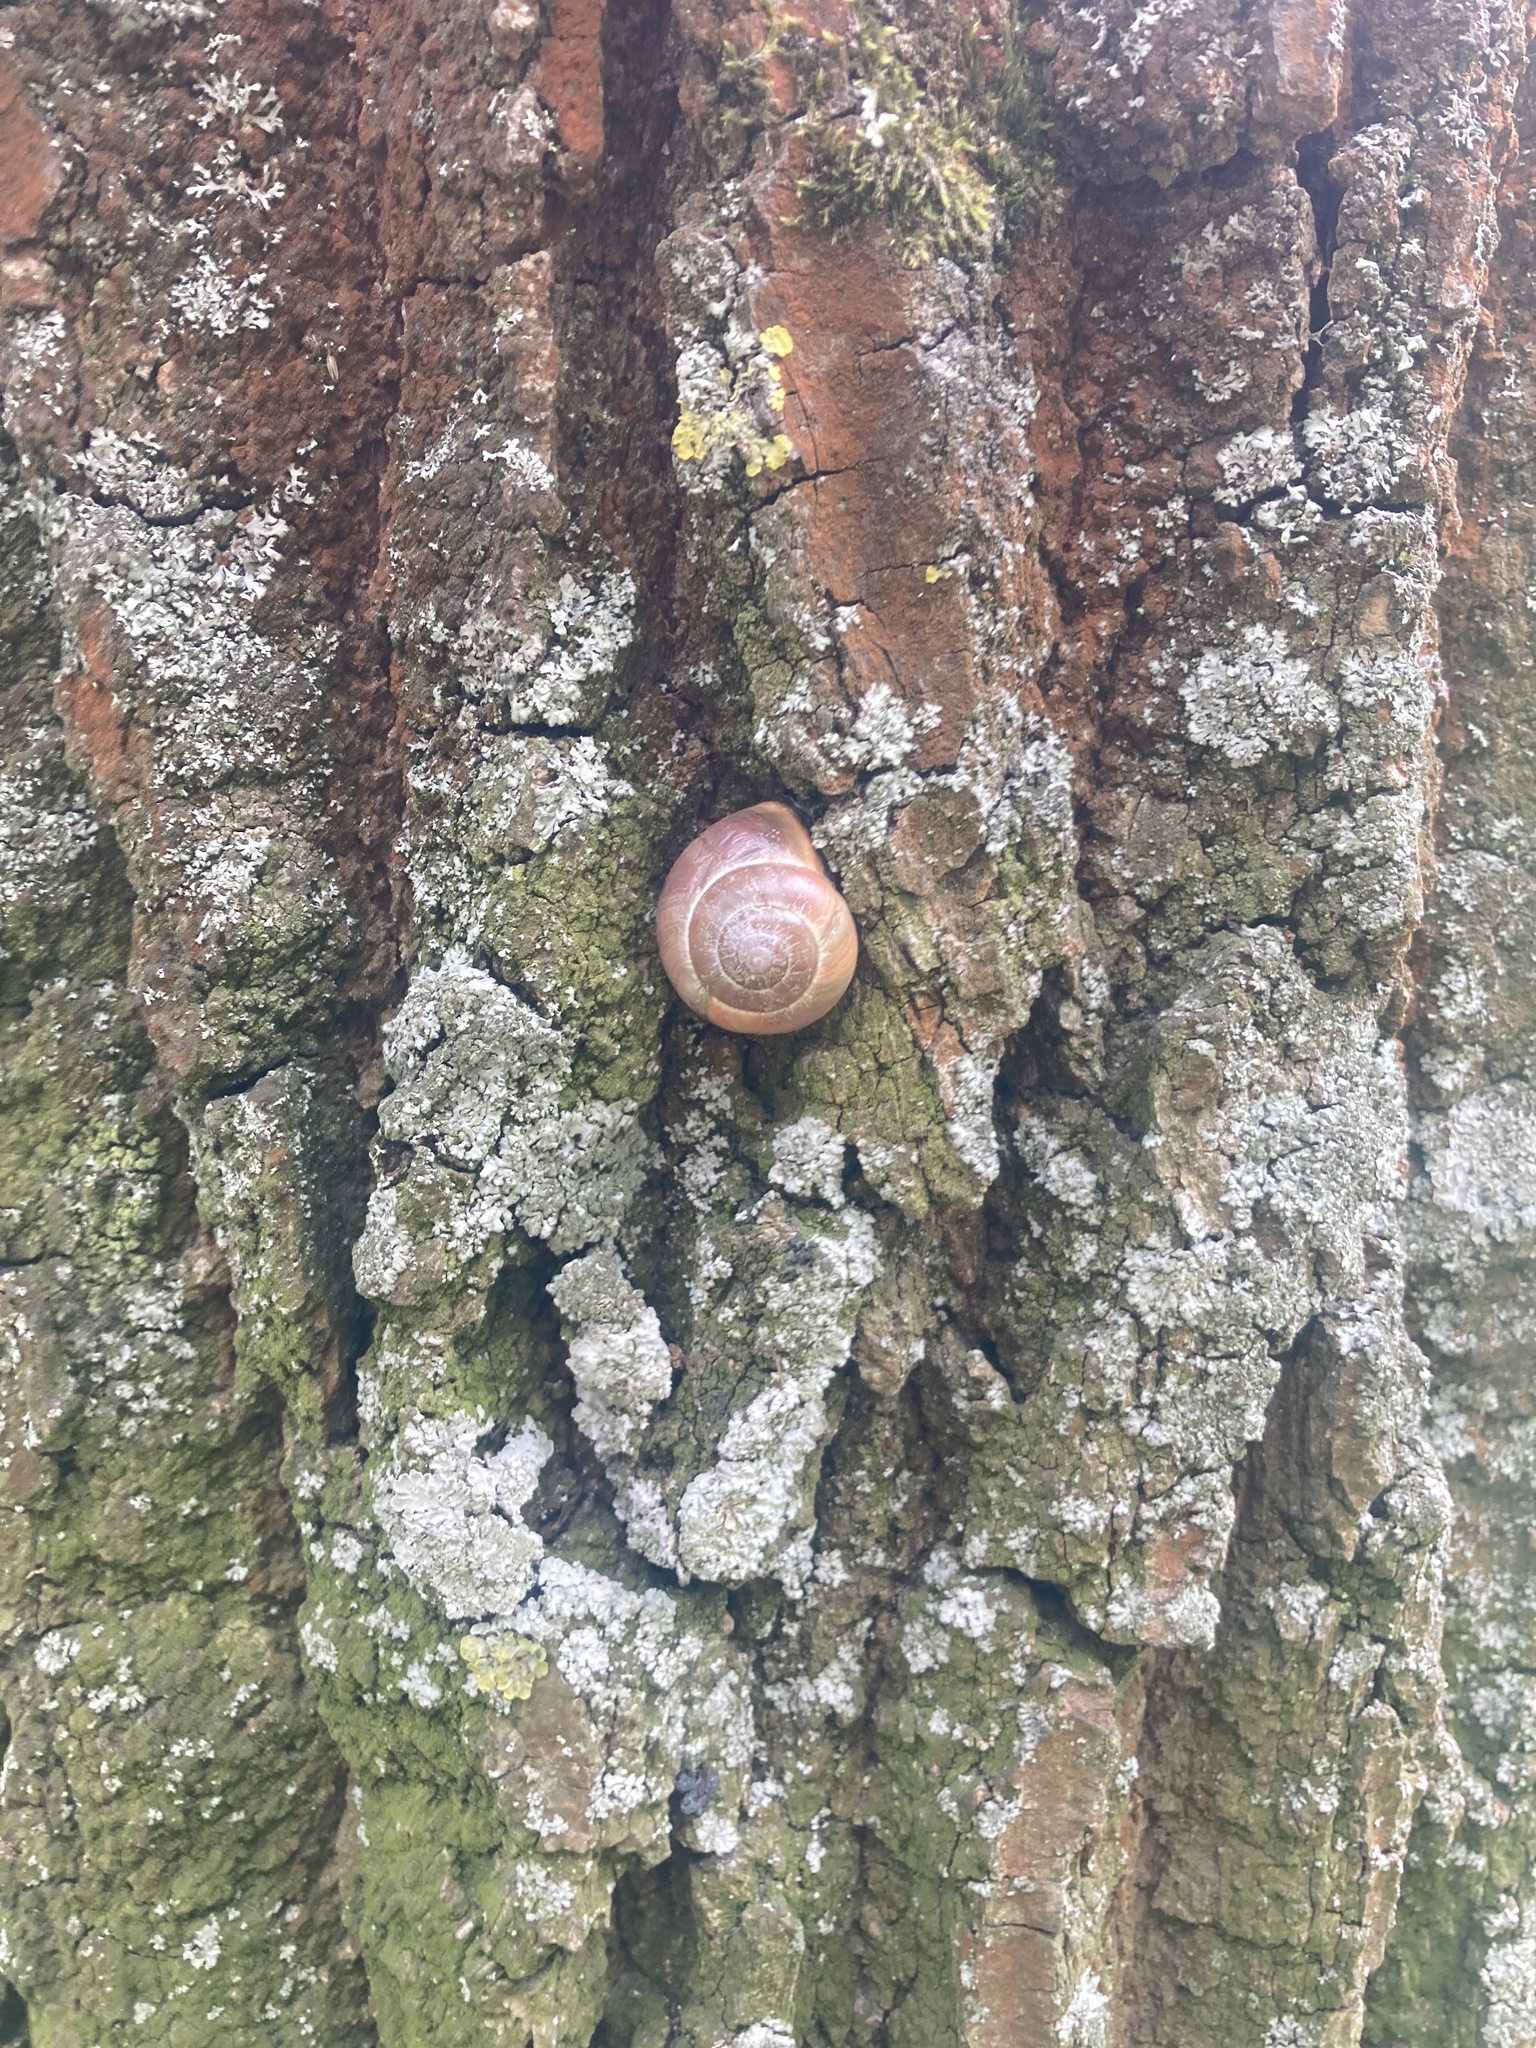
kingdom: Animalia
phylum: Mollusca
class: Gastropoda
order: Stylommatophora
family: Helicidae
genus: Cepaea
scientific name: Cepaea nemoralis
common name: Grovesnail
